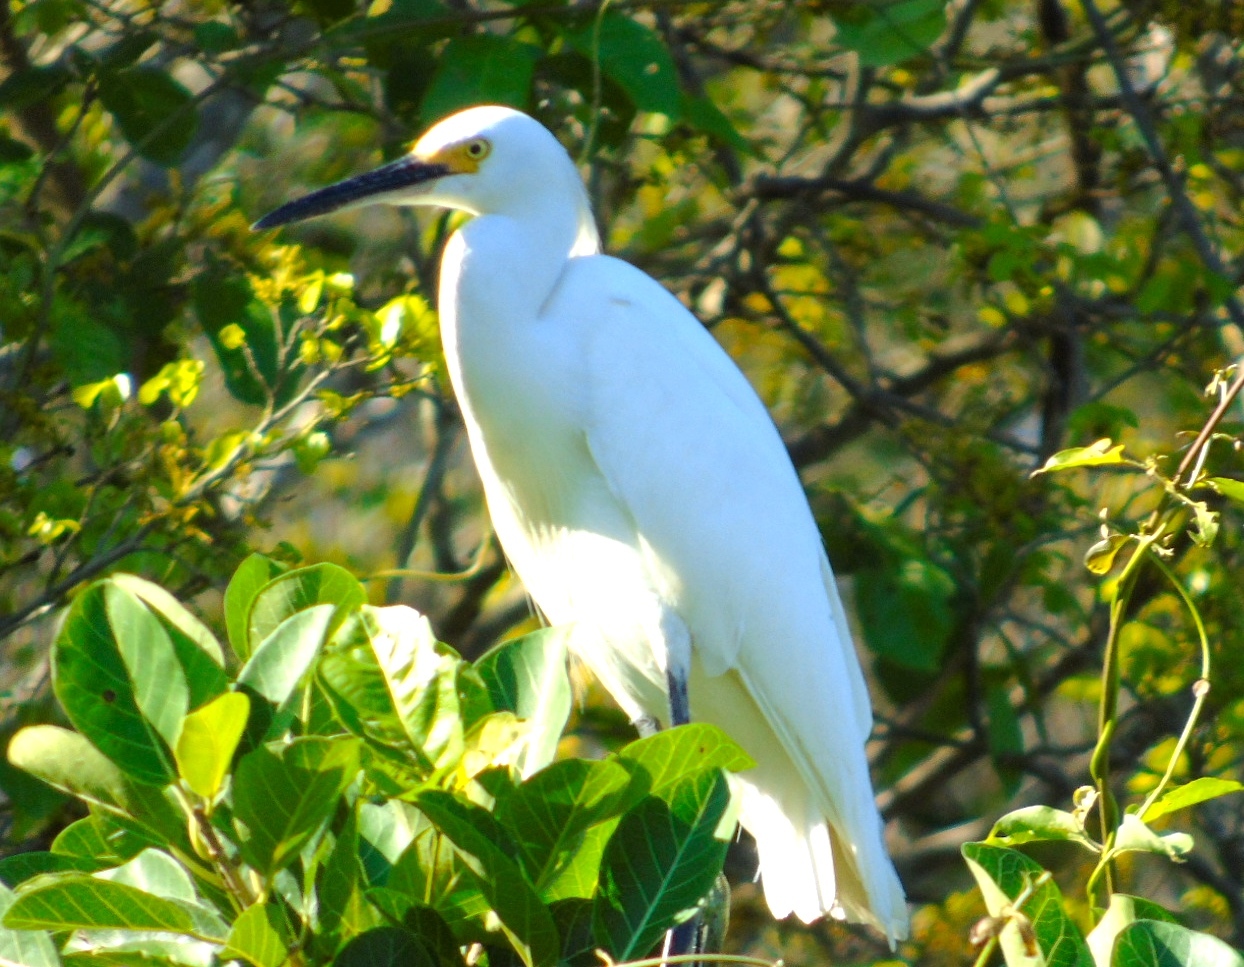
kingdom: Animalia
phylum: Chordata
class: Aves
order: Pelecaniformes
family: Ardeidae
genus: Egretta
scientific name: Egretta thula
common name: Snowy egret
